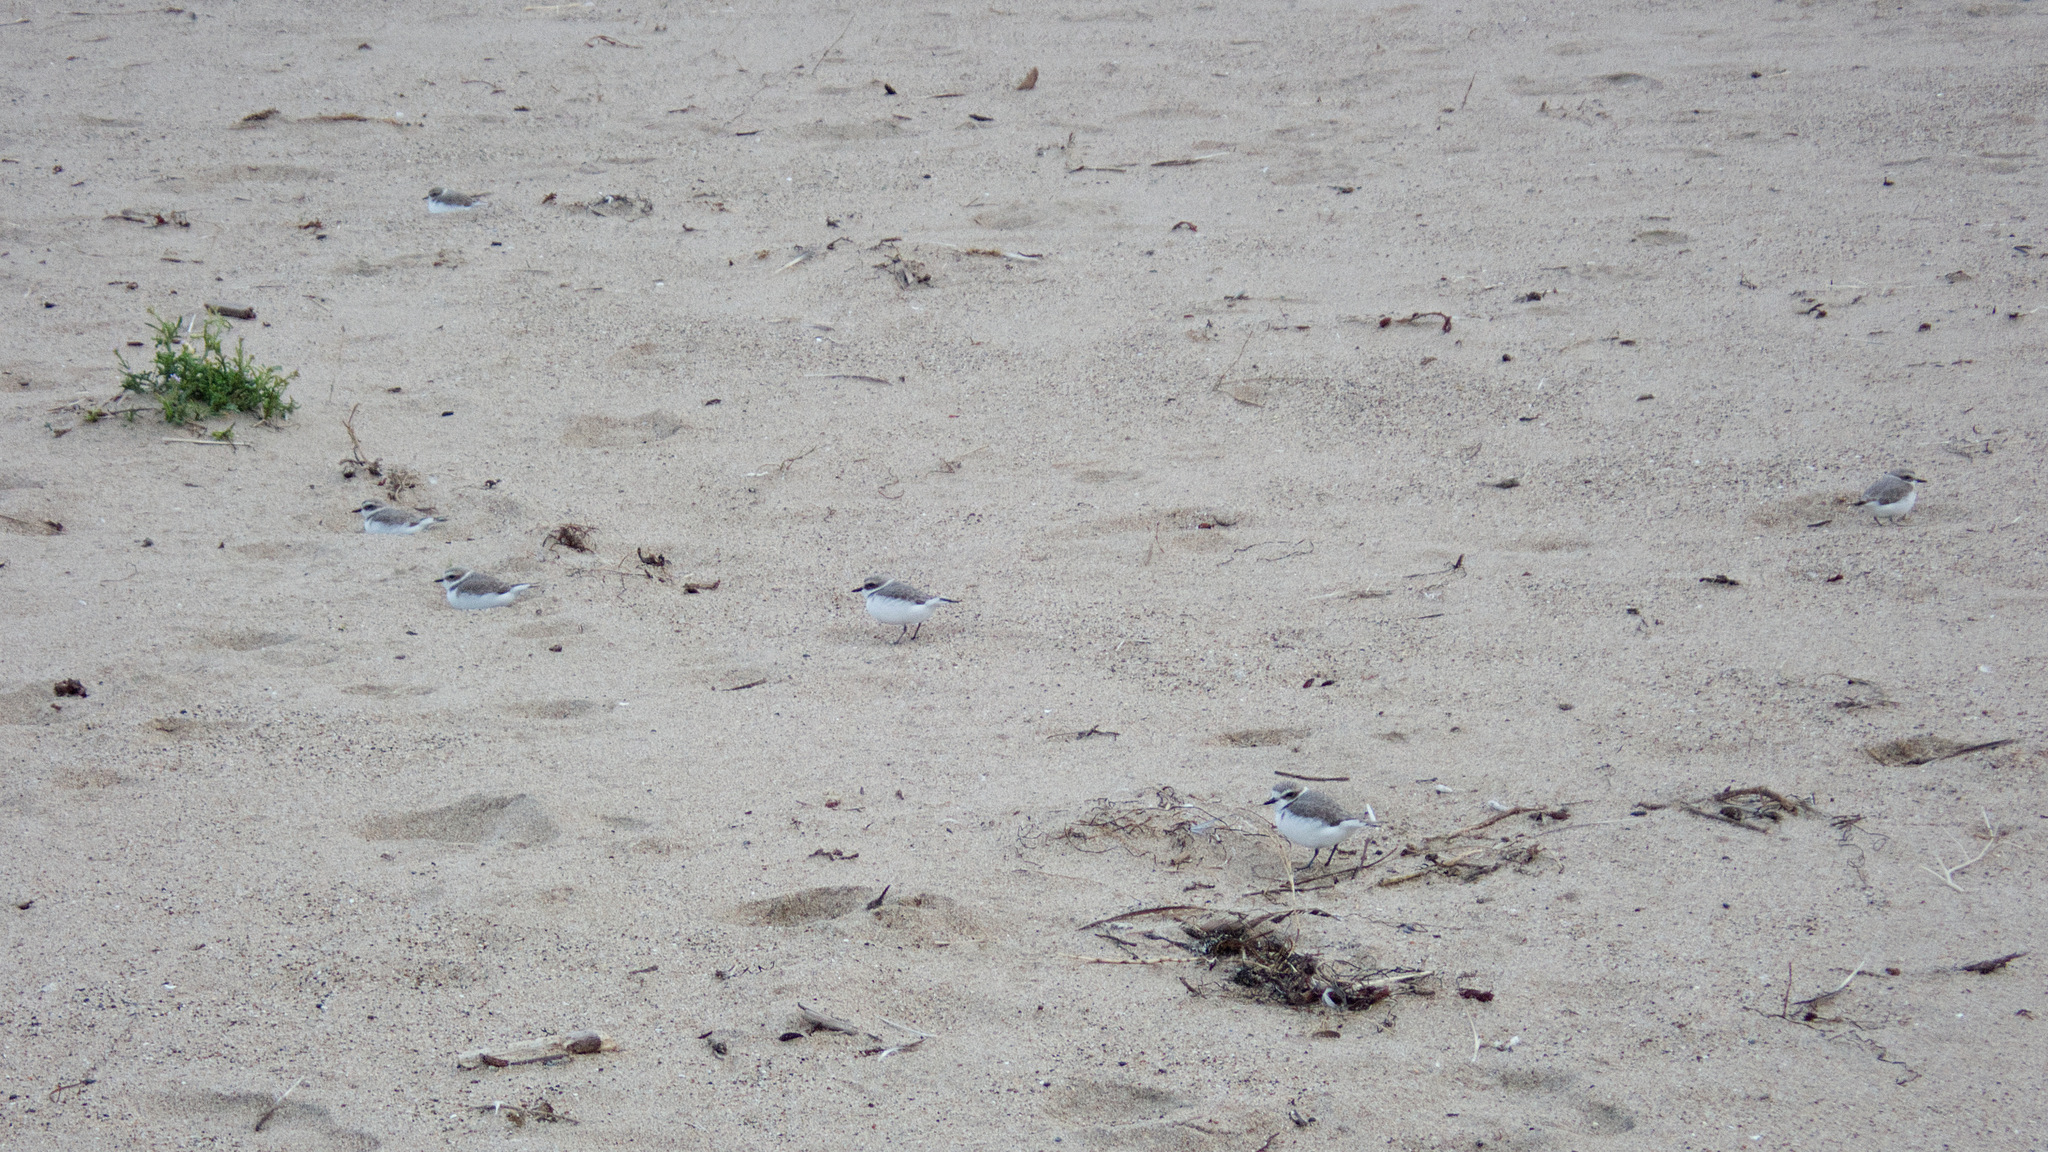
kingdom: Animalia
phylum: Chordata
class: Aves
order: Charadriiformes
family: Charadriidae
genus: Anarhynchus
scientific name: Anarhynchus
